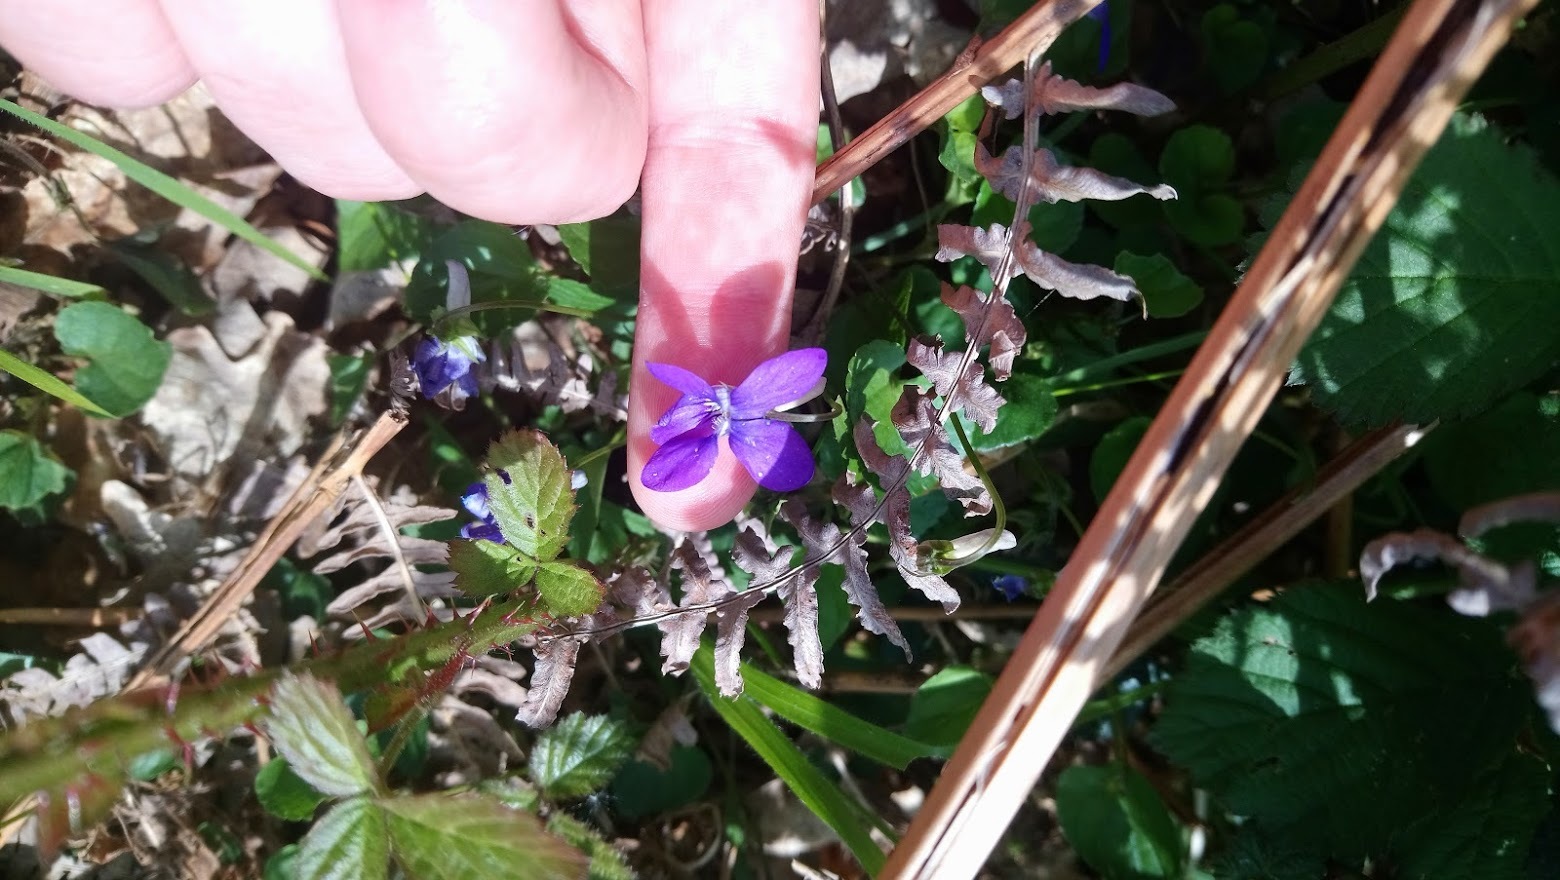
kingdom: Plantae
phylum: Tracheophyta
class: Magnoliopsida
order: Malpighiales
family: Violaceae
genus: Viola
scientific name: Viola riviniana
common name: Common dog-violet
